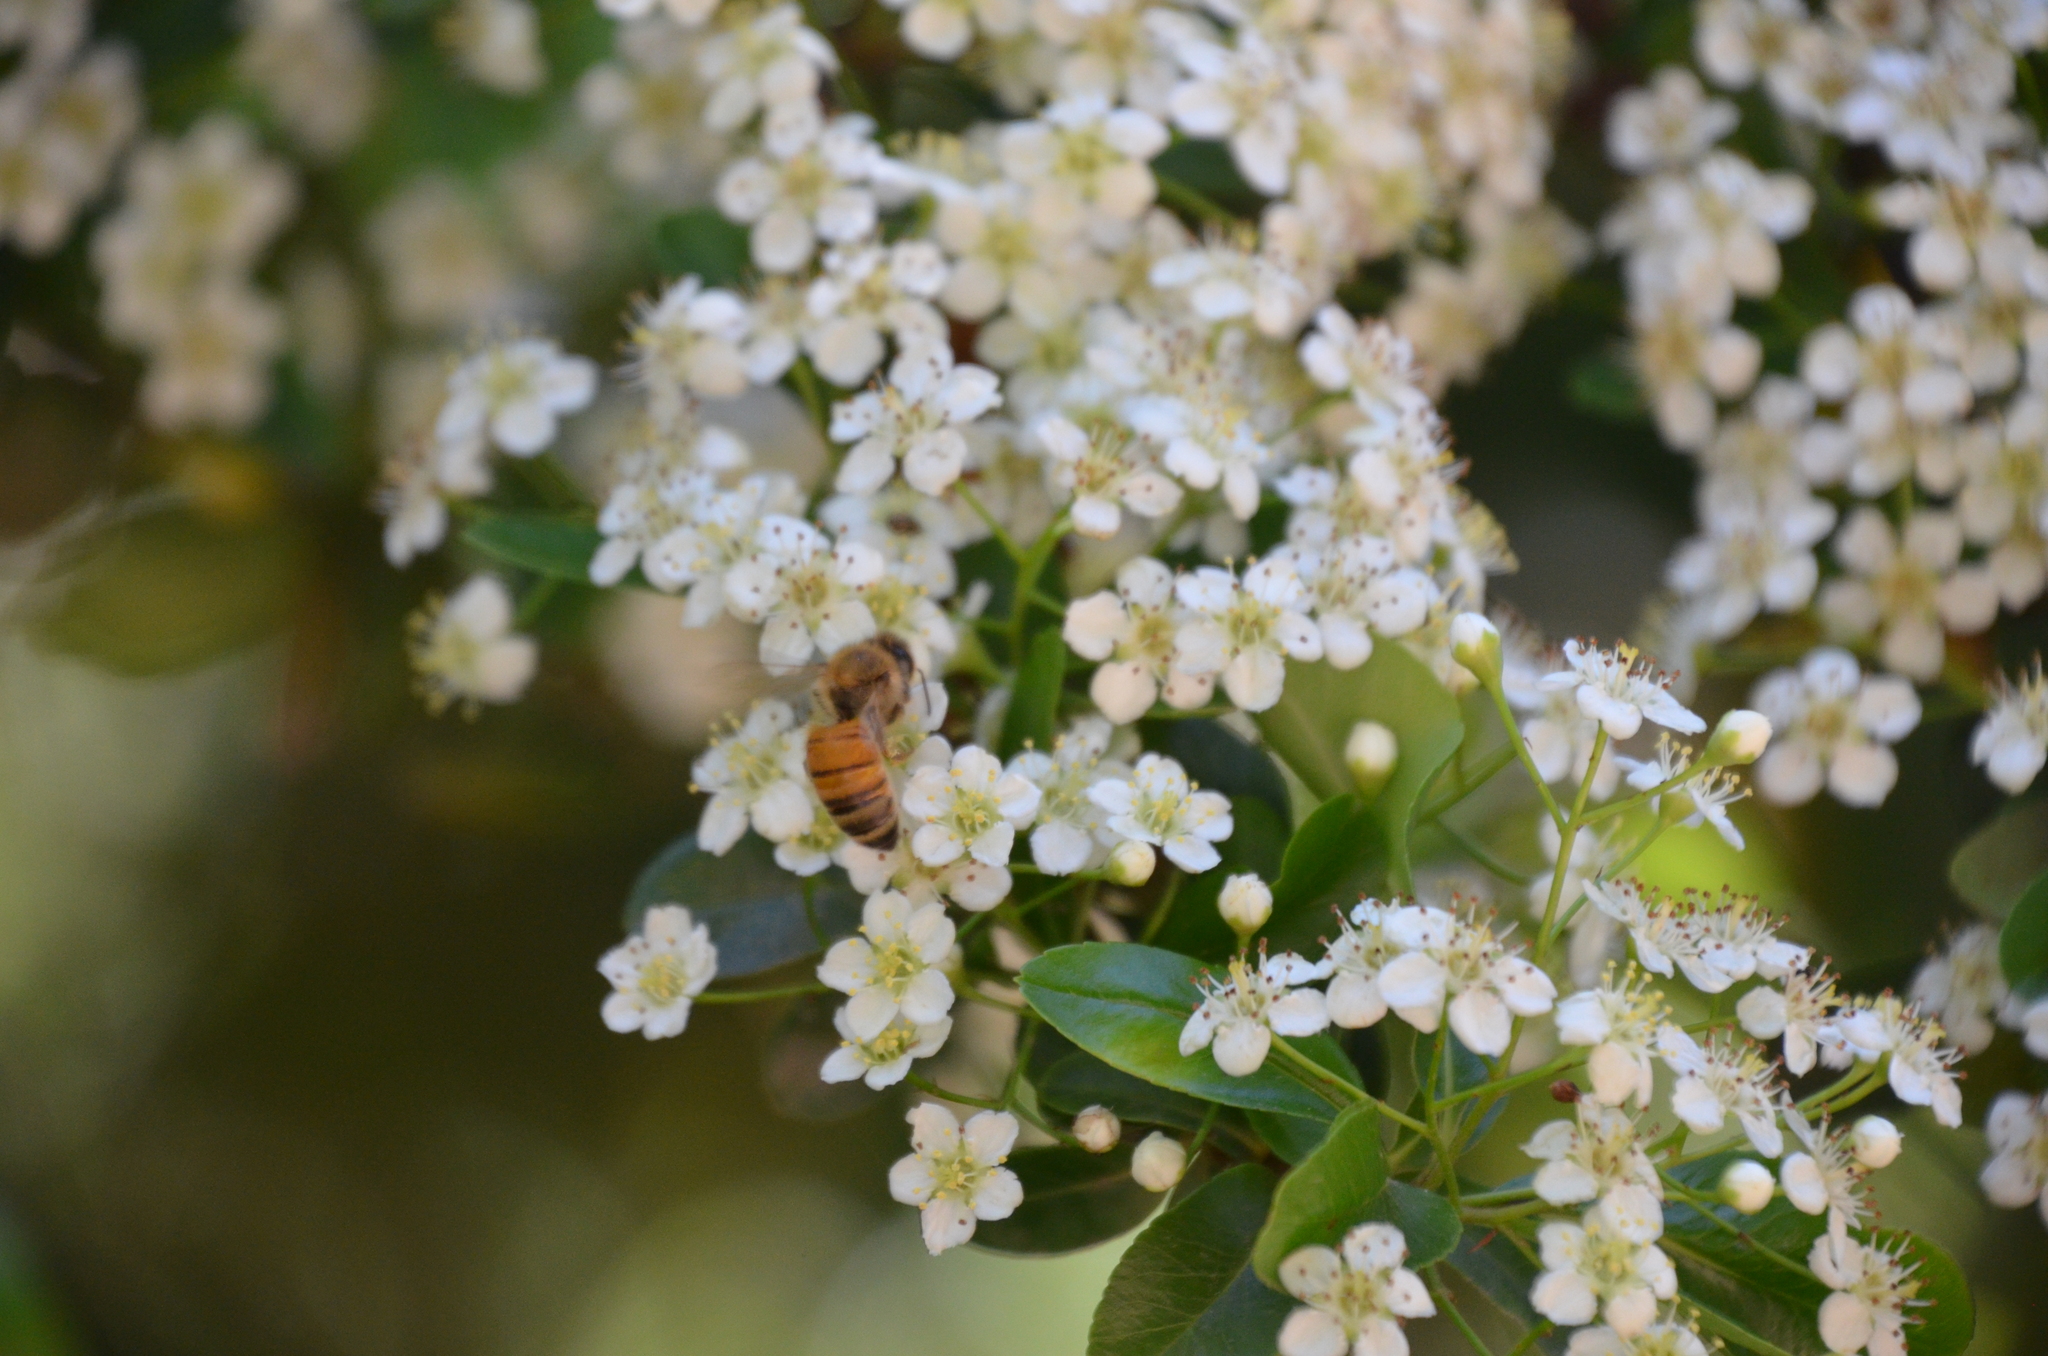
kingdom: Animalia
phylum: Arthropoda
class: Insecta
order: Hymenoptera
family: Apidae
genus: Apis
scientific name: Apis mellifera
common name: Honey bee
